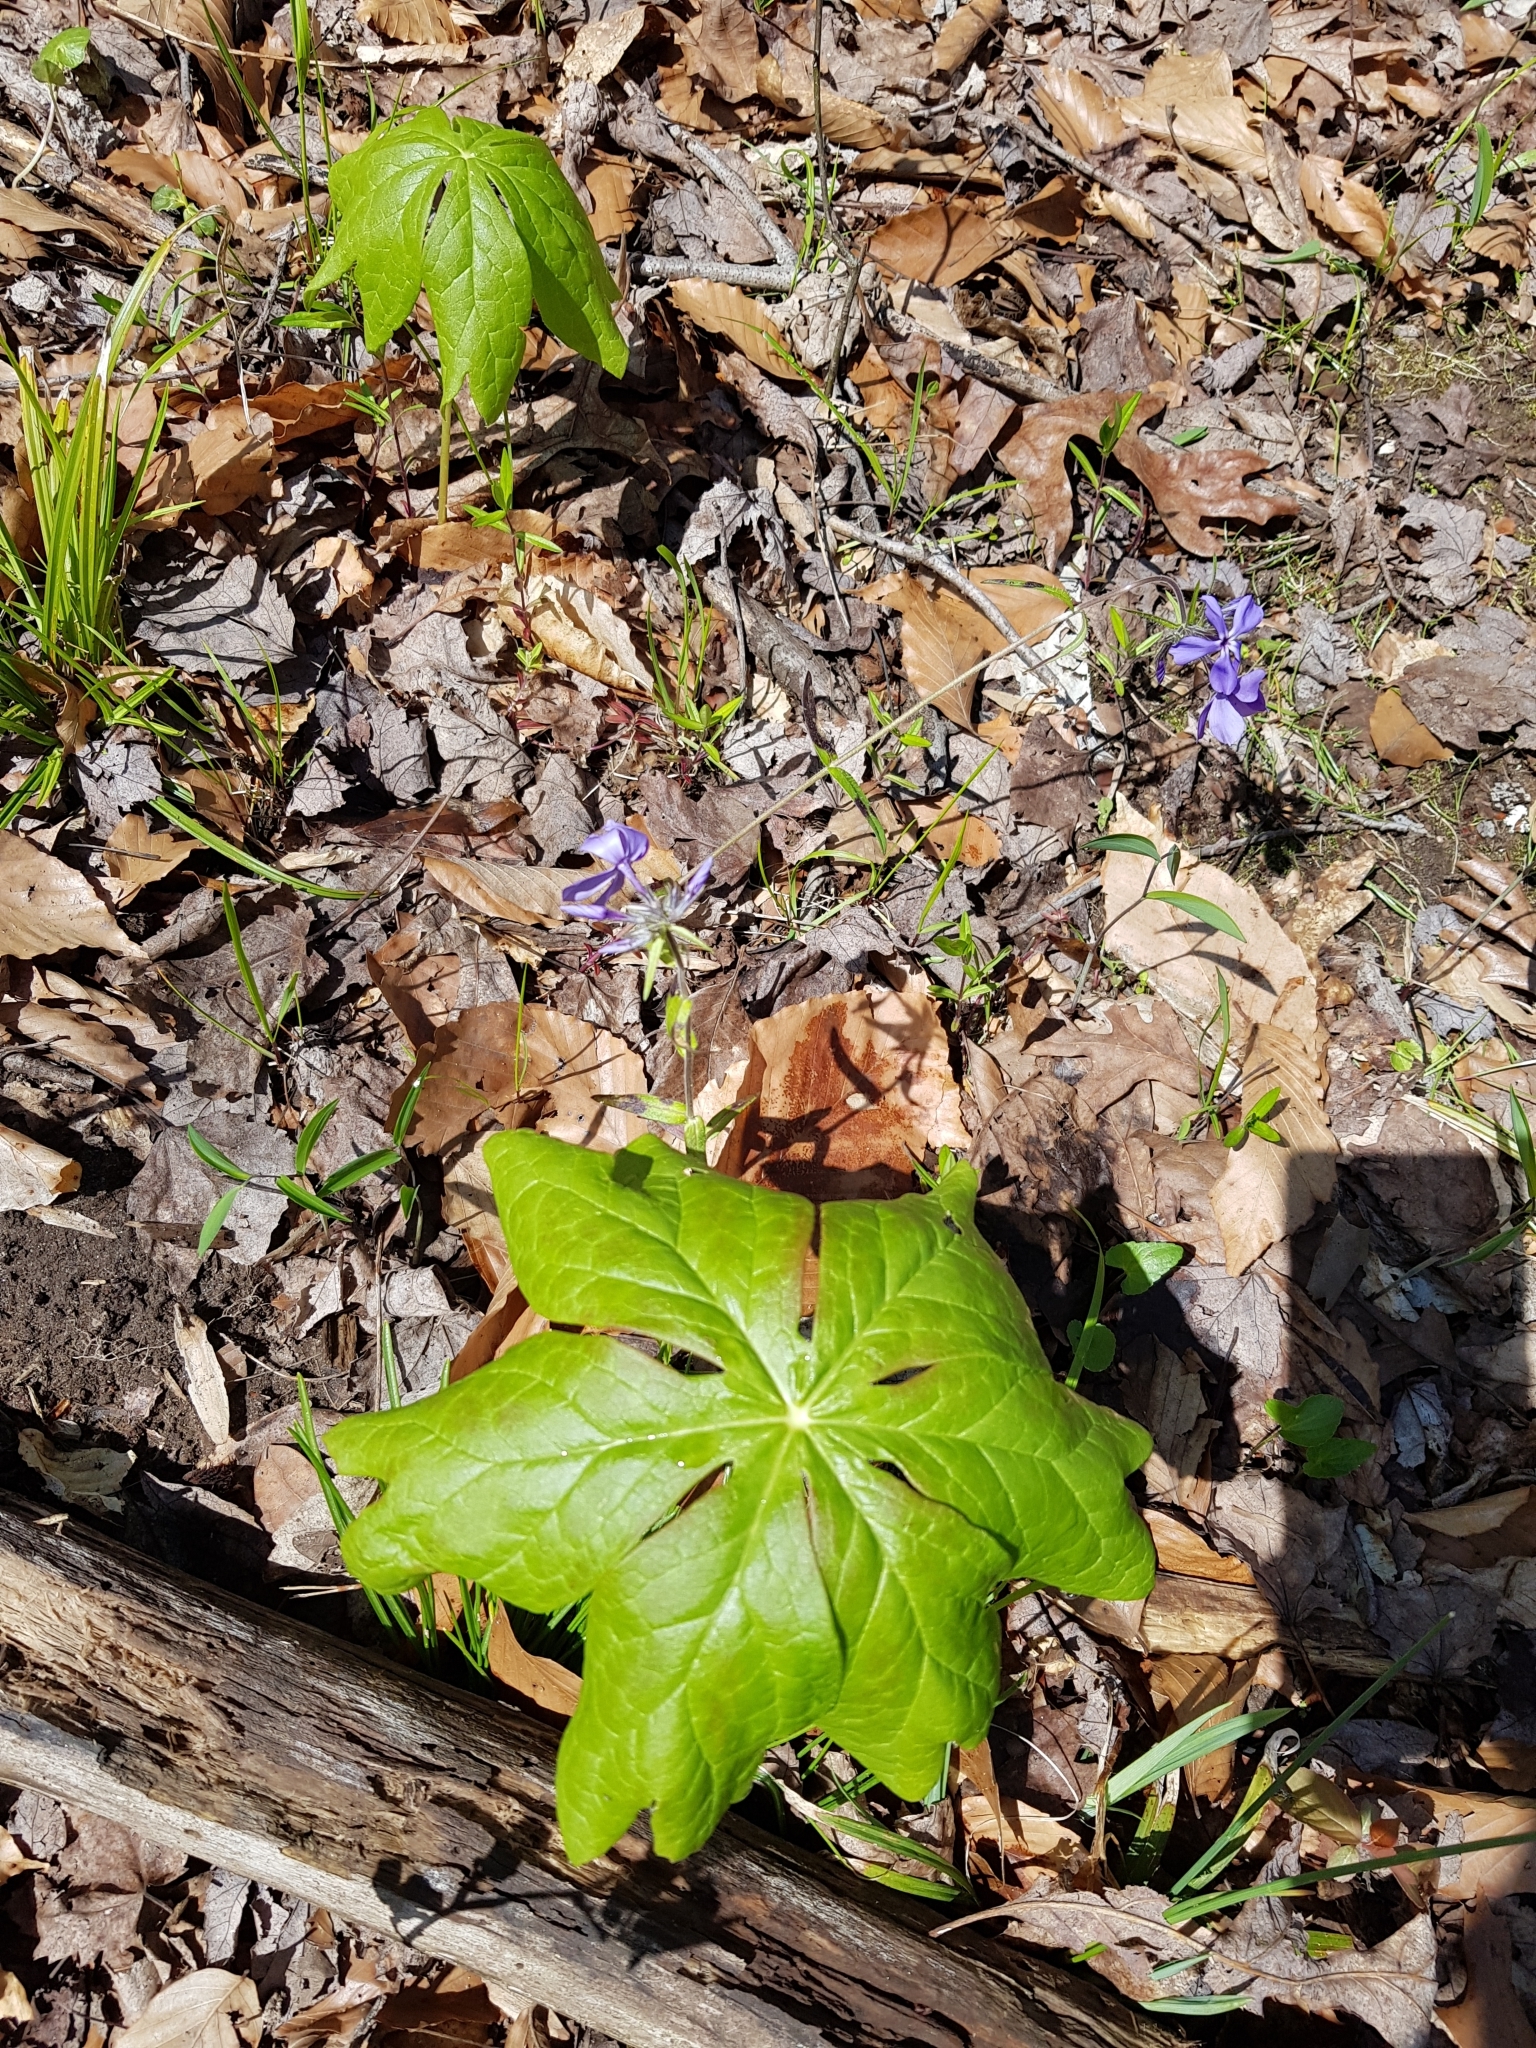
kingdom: Plantae
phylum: Tracheophyta
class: Magnoliopsida
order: Ranunculales
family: Berberidaceae
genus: Podophyllum
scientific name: Podophyllum peltatum
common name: Wild mandrake
